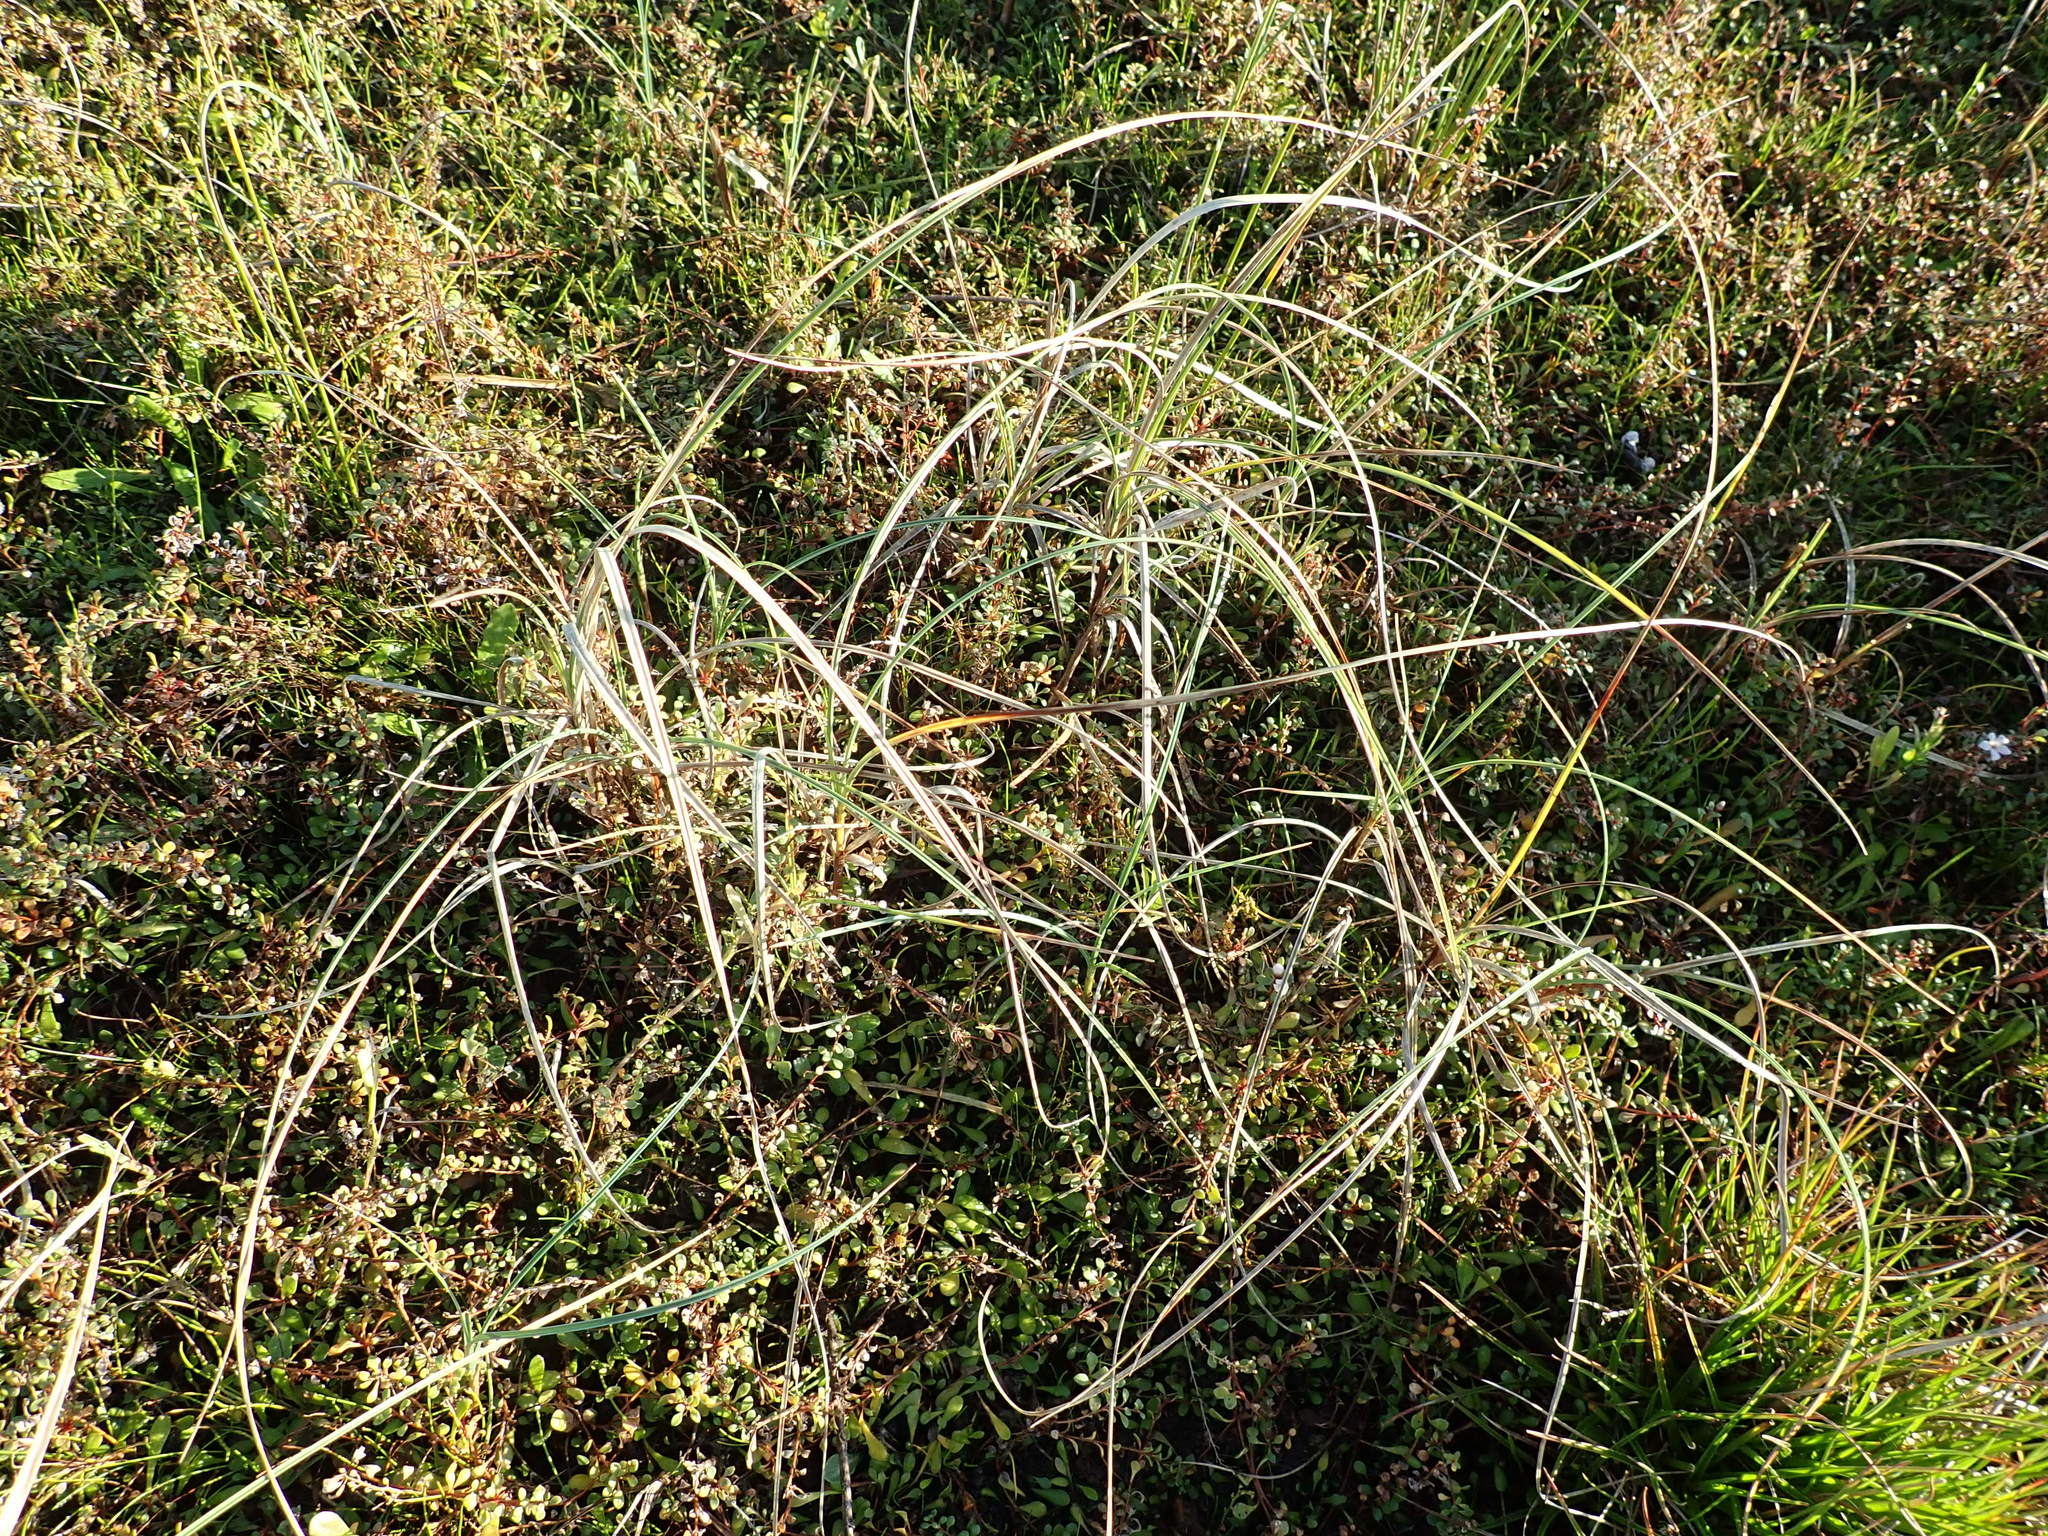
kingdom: Plantae
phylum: Tracheophyta
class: Liliopsida
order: Poales
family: Cyperaceae
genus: Carex
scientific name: Carex pumila
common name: Dwarf sedge
